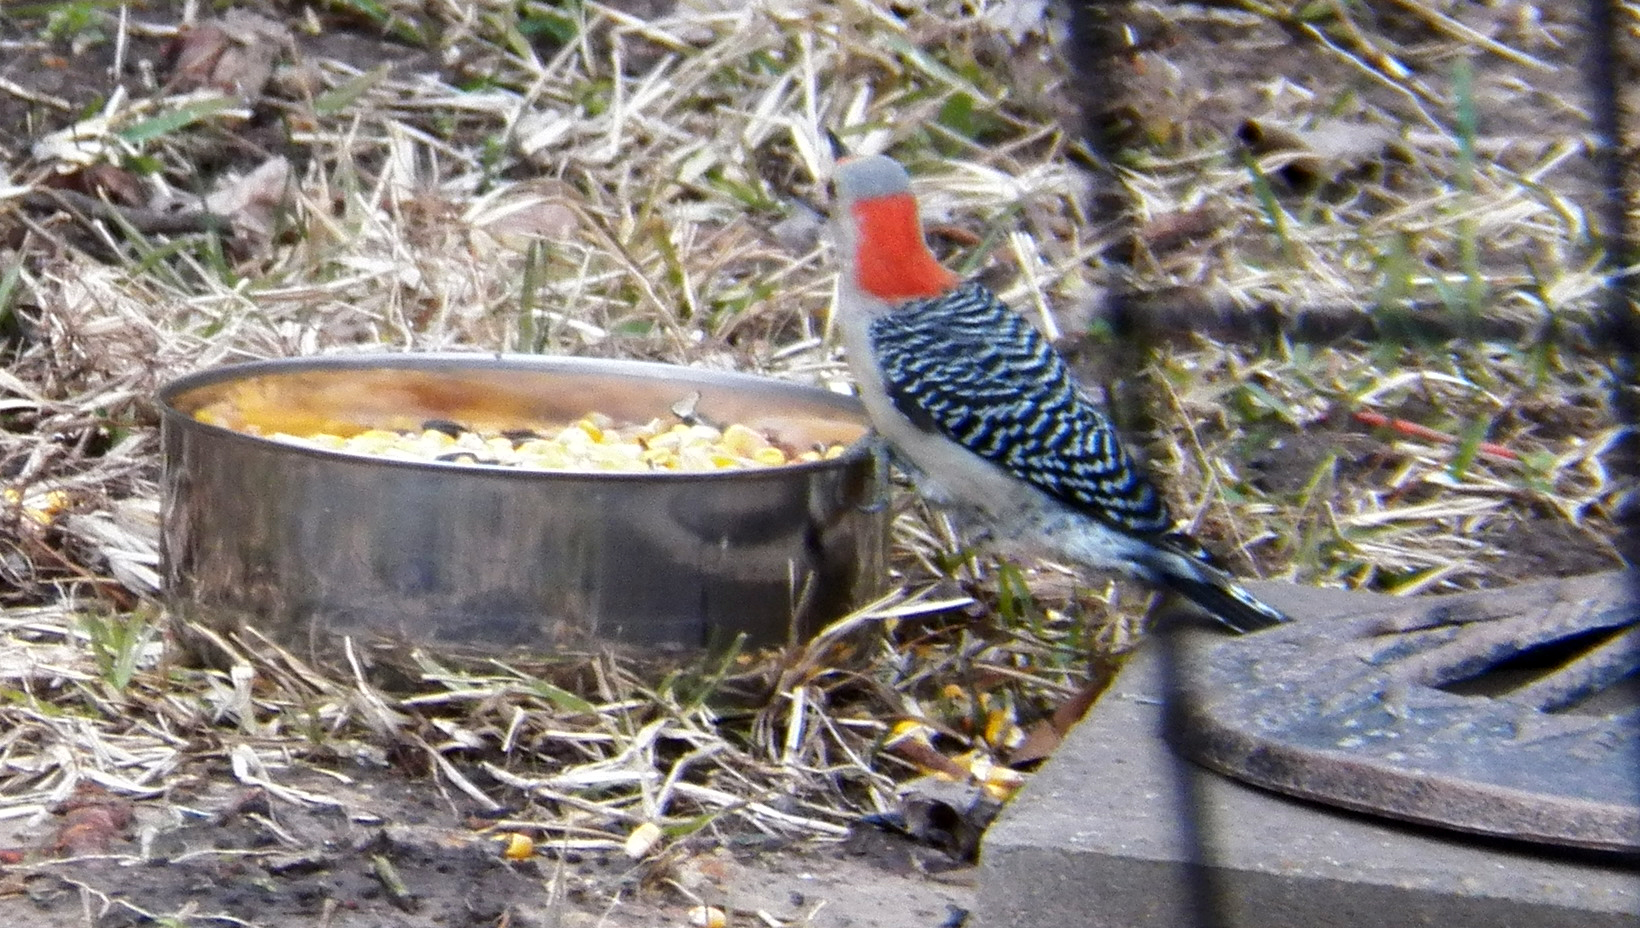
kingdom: Animalia
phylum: Chordata
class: Aves
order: Piciformes
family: Picidae
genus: Melanerpes
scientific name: Melanerpes carolinus
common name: Red-bellied woodpecker
